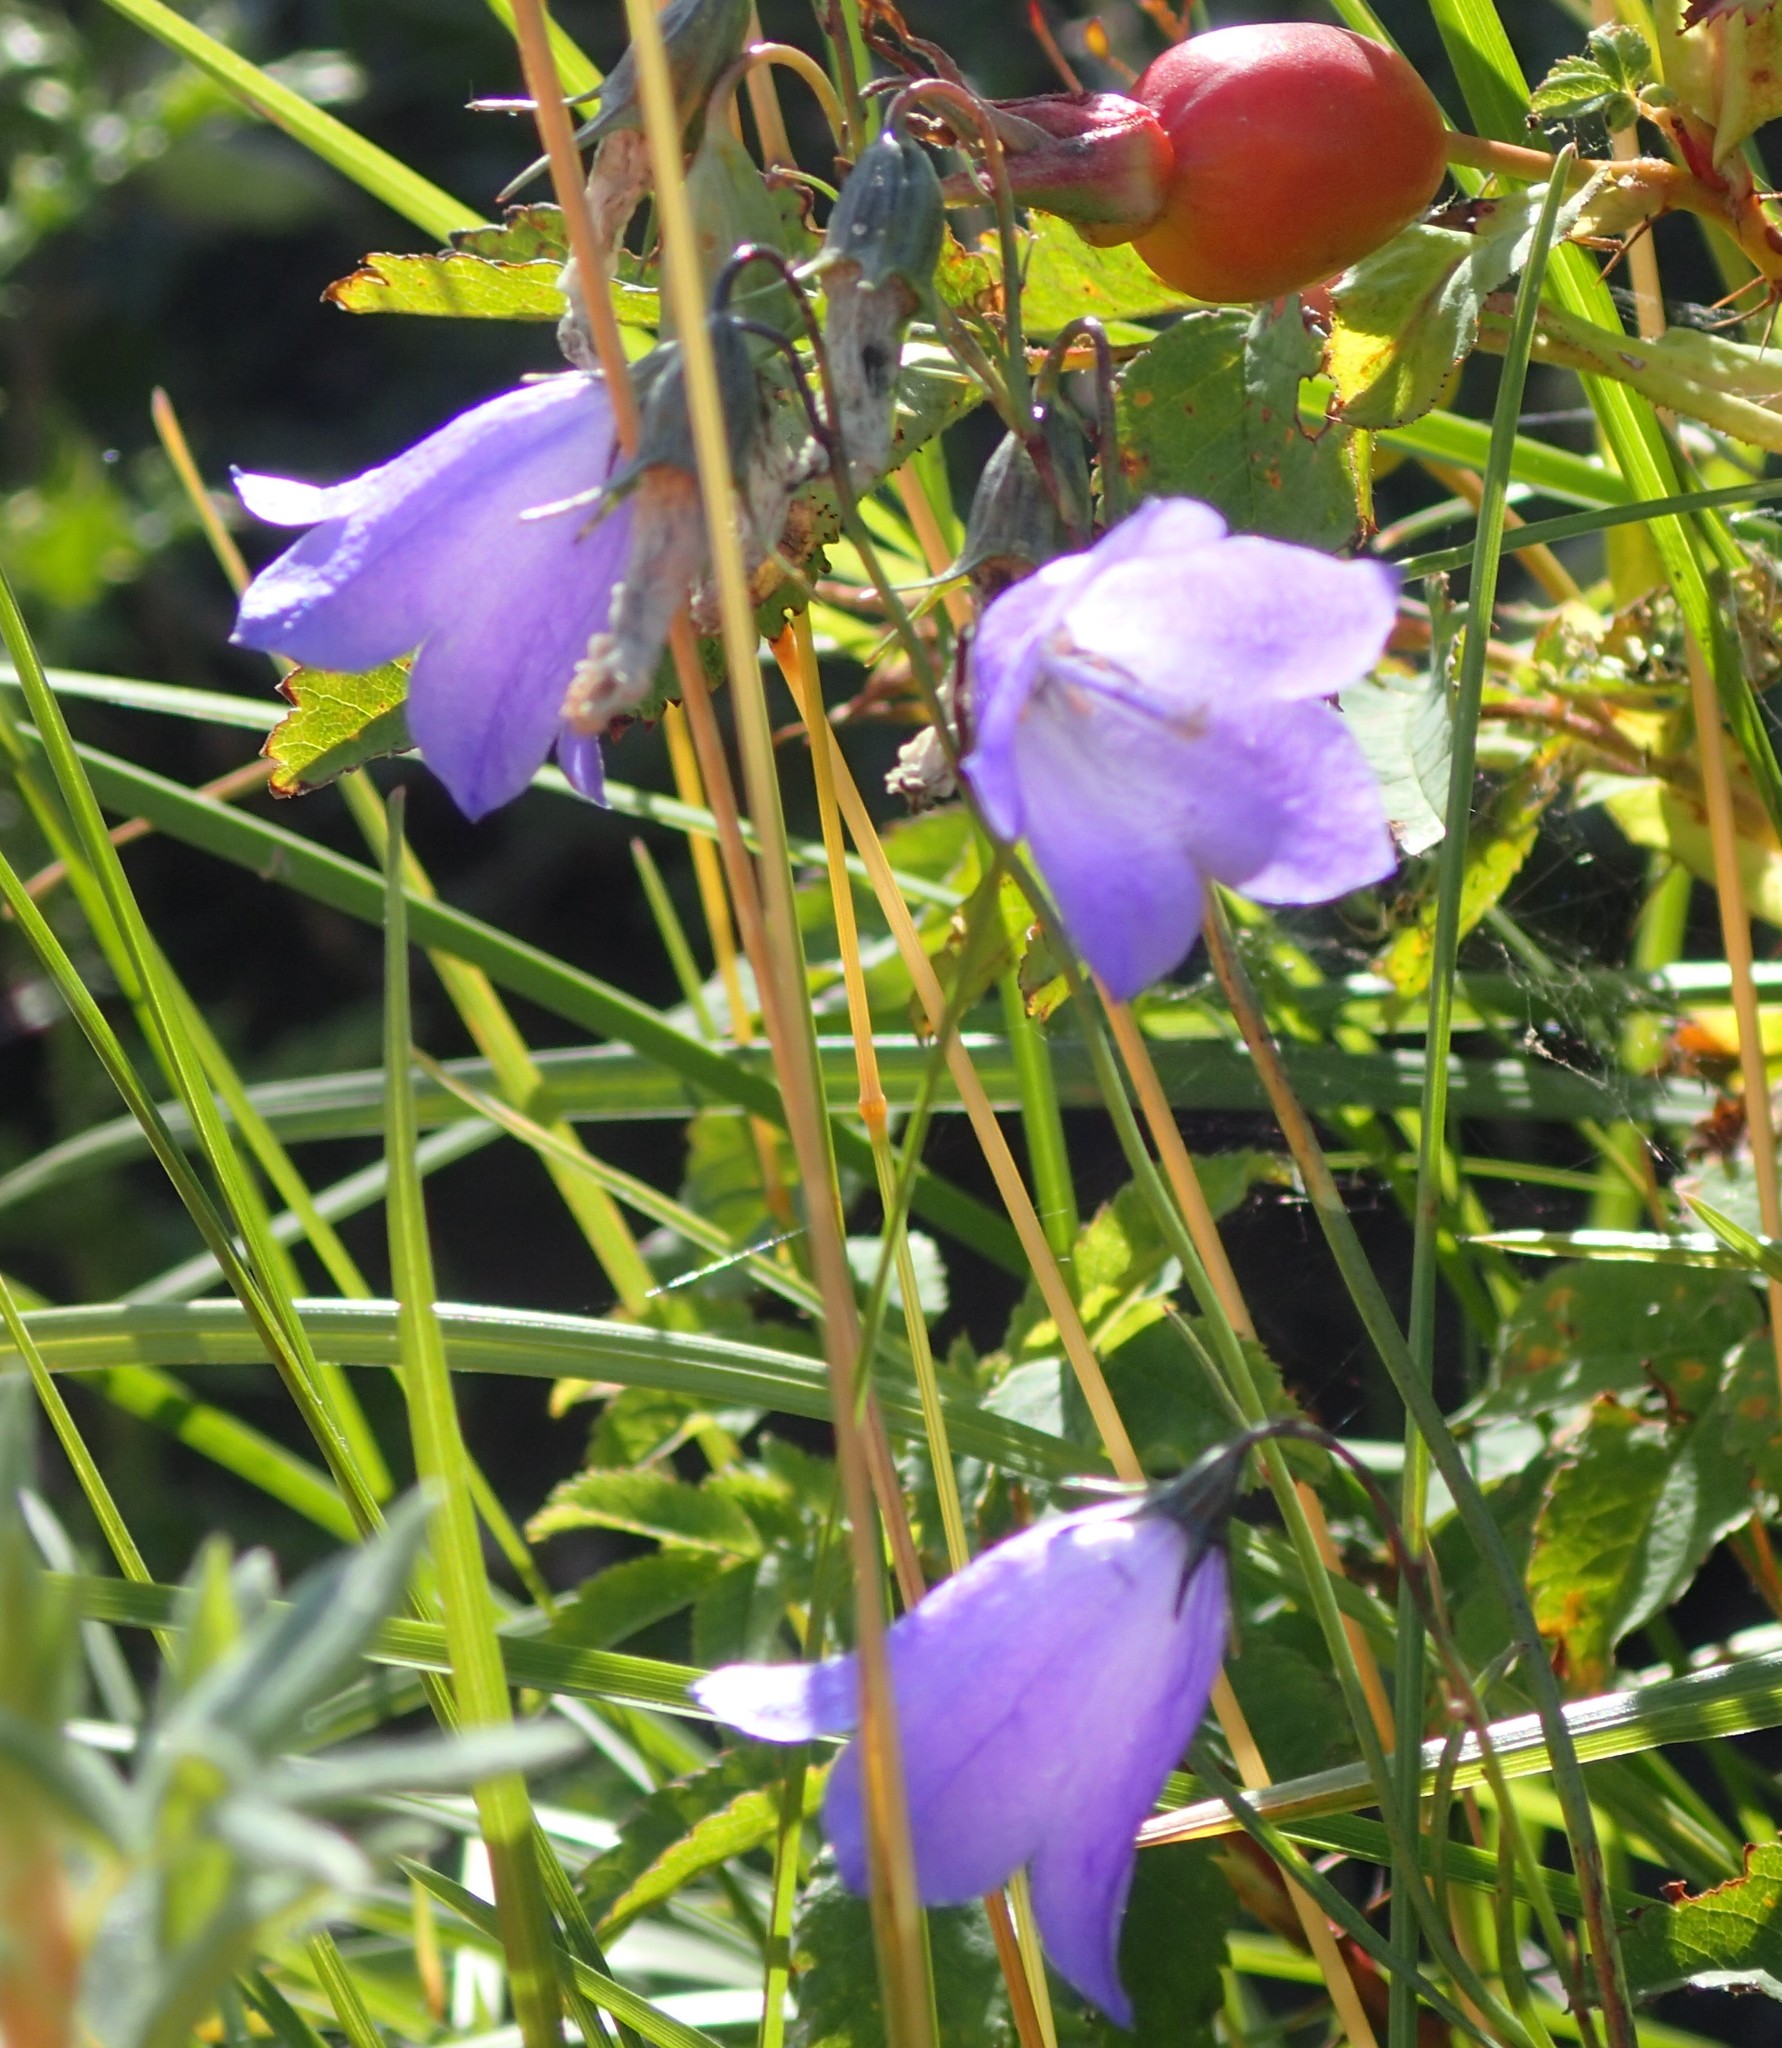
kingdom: Plantae
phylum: Tracheophyta
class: Magnoliopsida
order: Asterales
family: Campanulaceae
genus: Campanula
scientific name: Campanula alaskana
